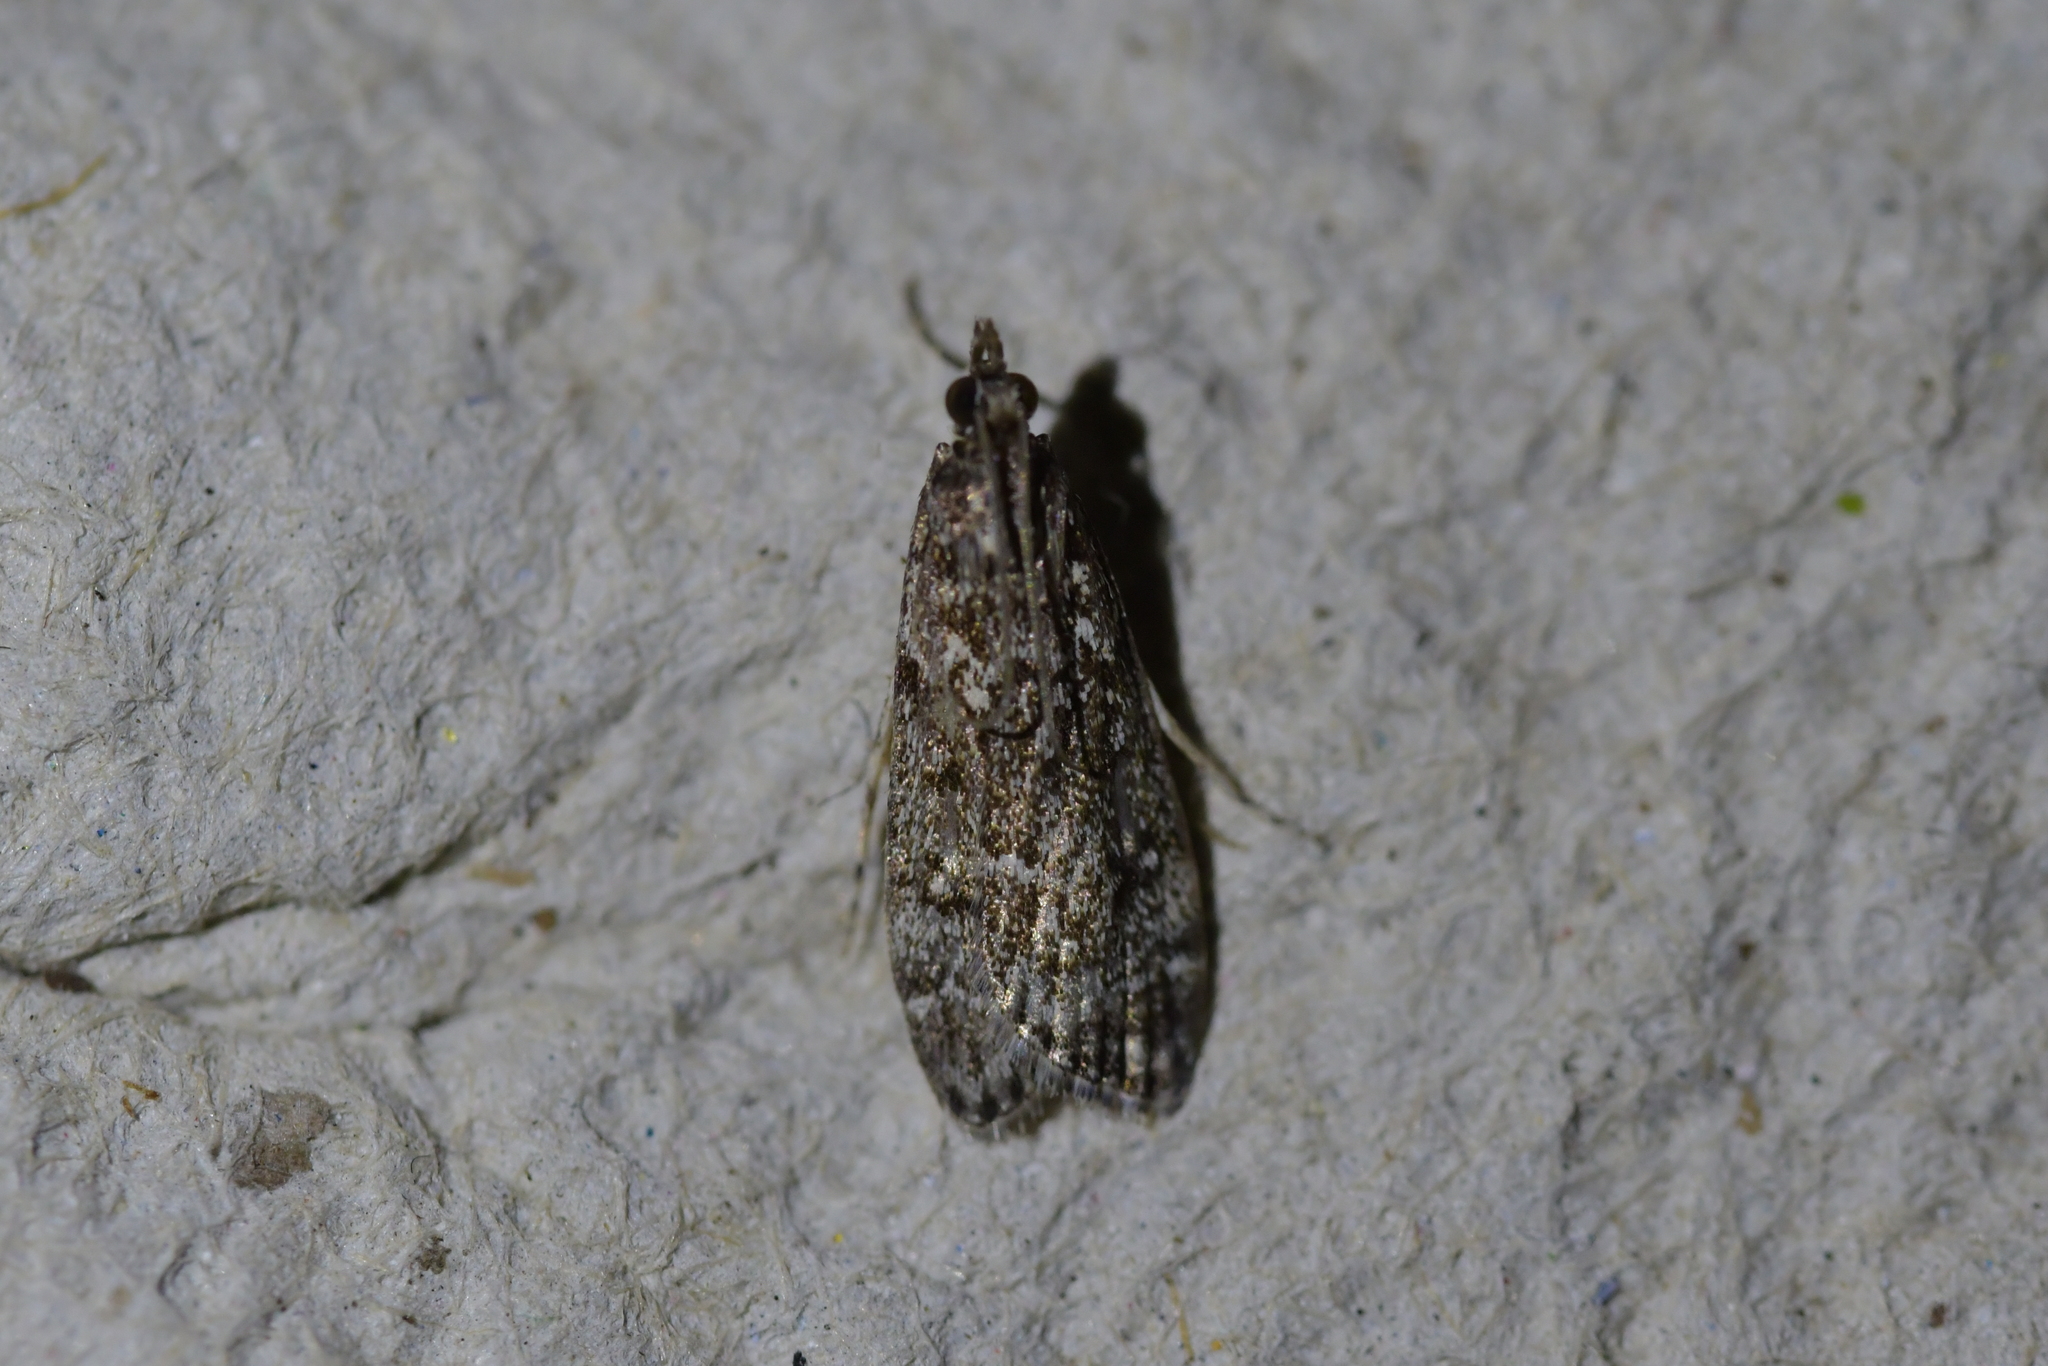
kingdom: Animalia
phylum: Arthropoda
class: Insecta
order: Lepidoptera
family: Crambidae
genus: Eudonia
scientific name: Eudonia philerga
